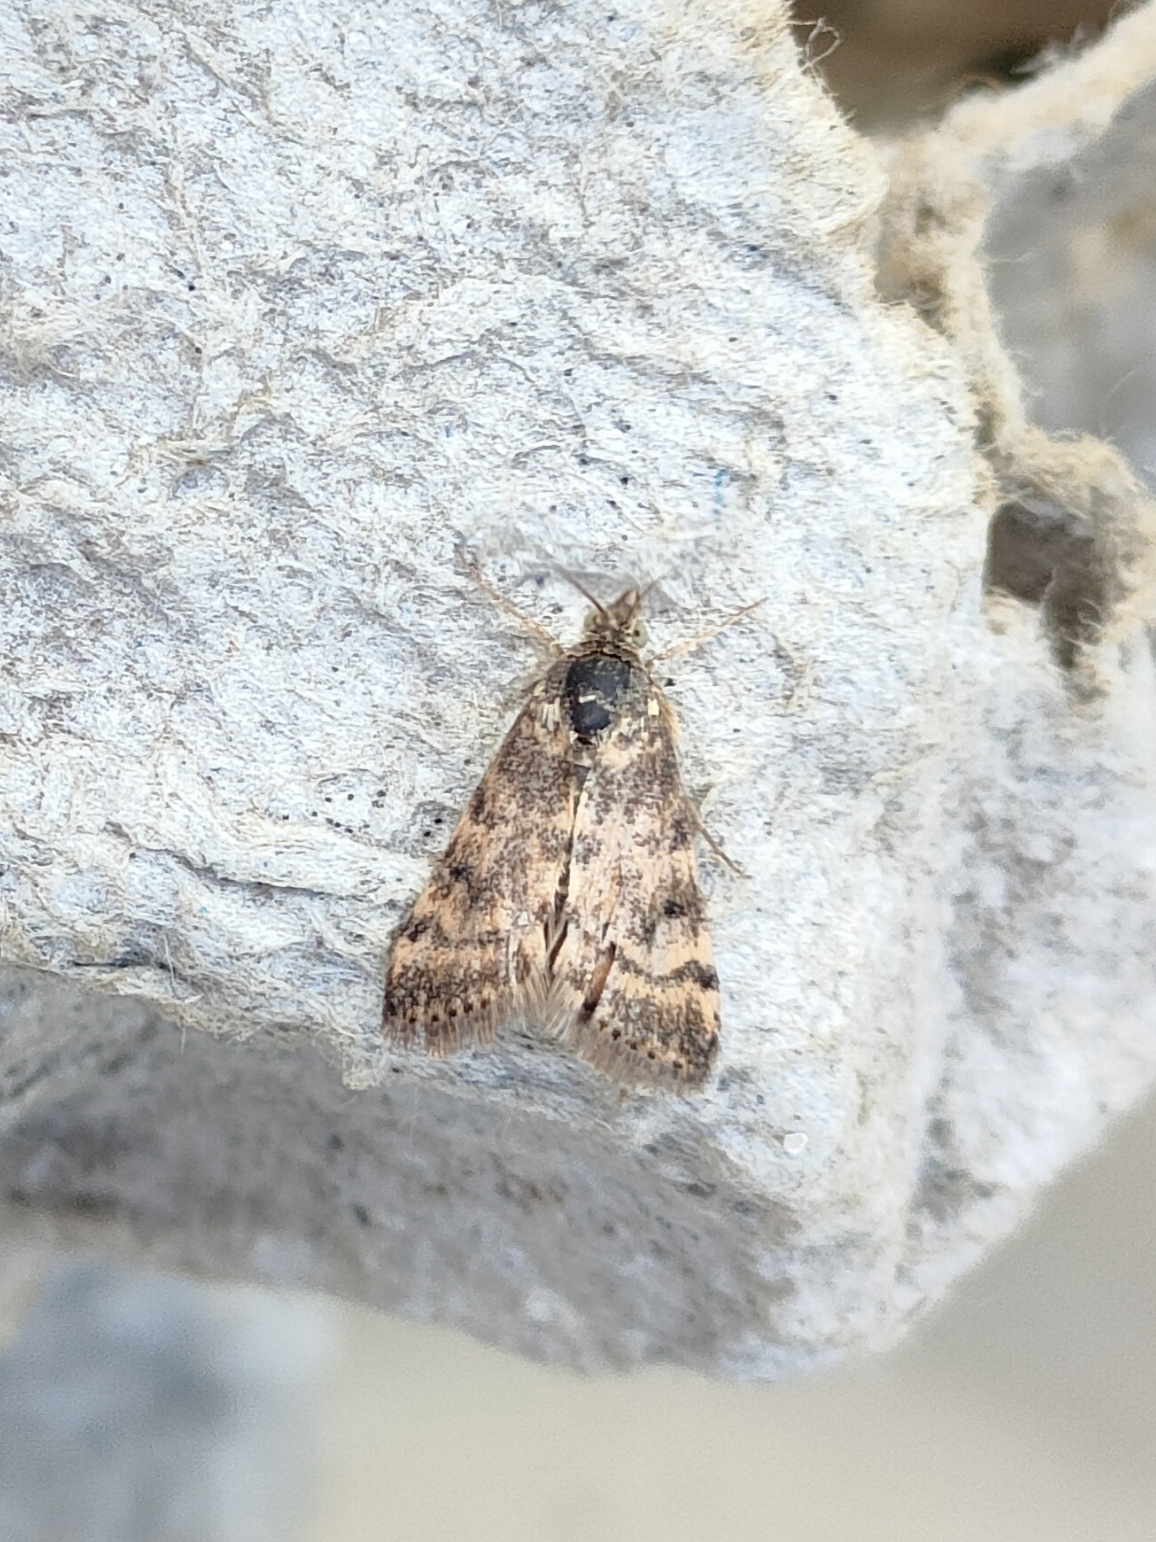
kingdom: Animalia
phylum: Arthropoda
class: Insecta
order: Lepidoptera
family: Crambidae
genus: Noctuelia
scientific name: Noctuelia Aporodes floralis
